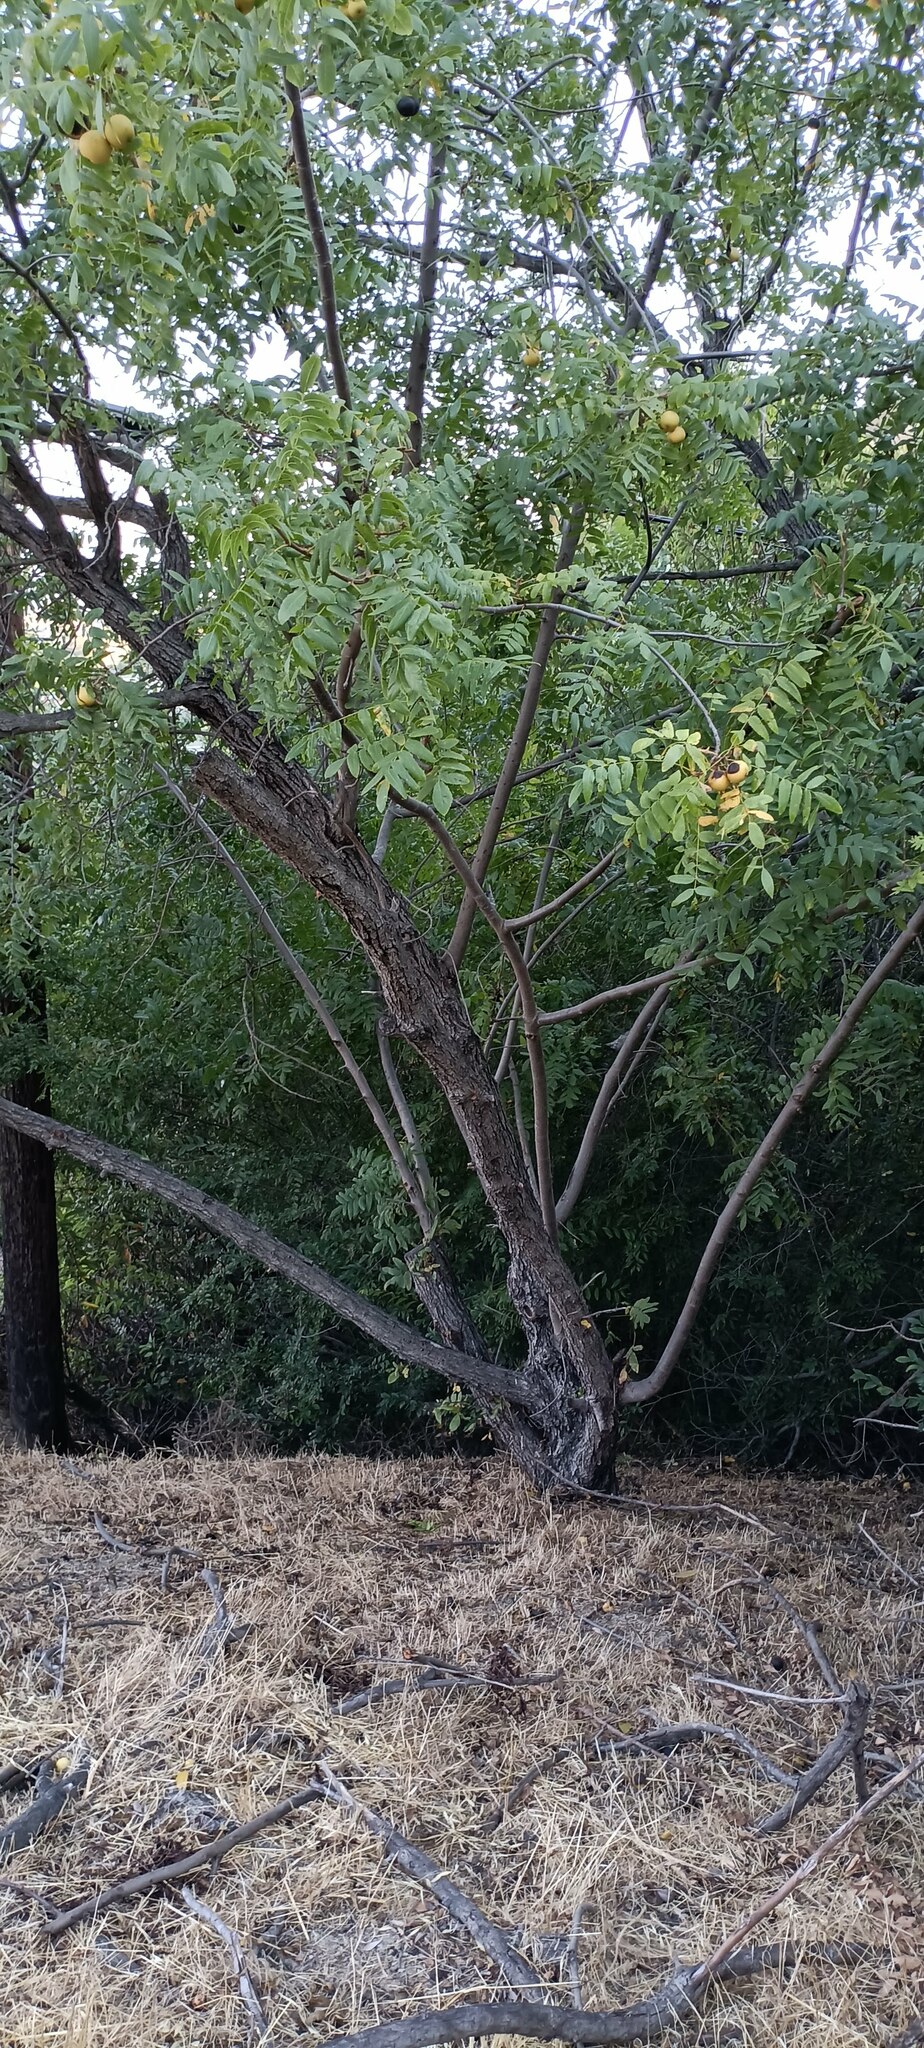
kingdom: Plantae
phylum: Tracheophyta
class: Magnoliopsida
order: Fagales
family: Juglandaceae
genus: Juglans
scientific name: Juglans californica
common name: Southern california black walnut
